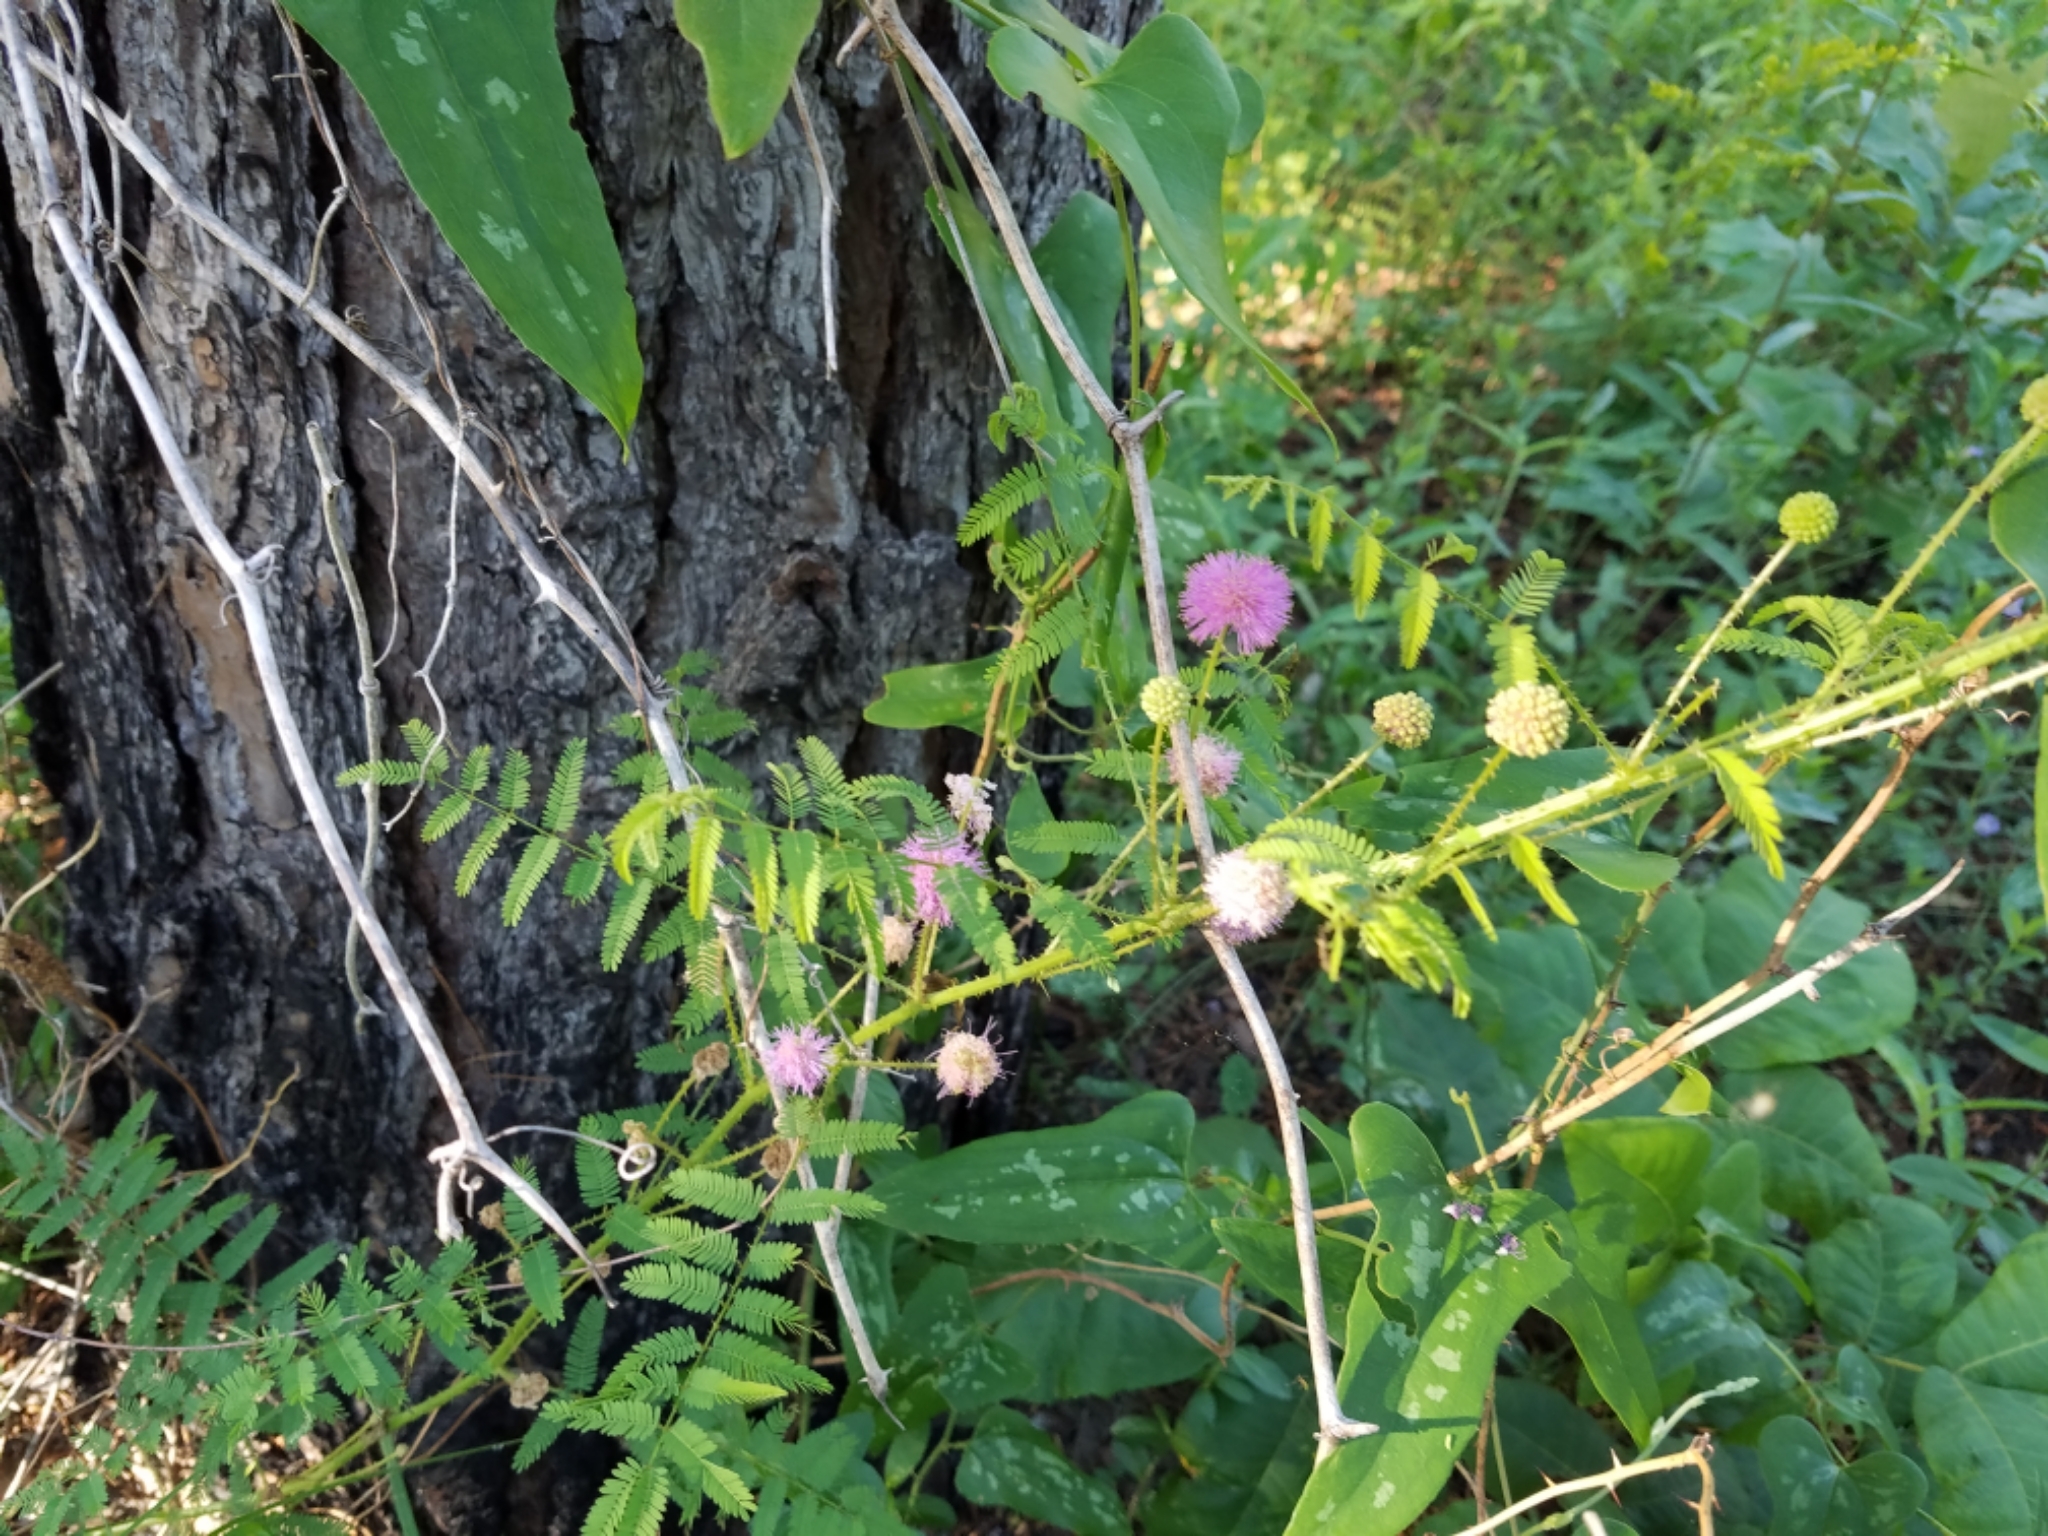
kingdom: Plantae
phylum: Tracheophyta
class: Magnoliopsida
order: Fabales
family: Fabaceae
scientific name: Fabaceae
